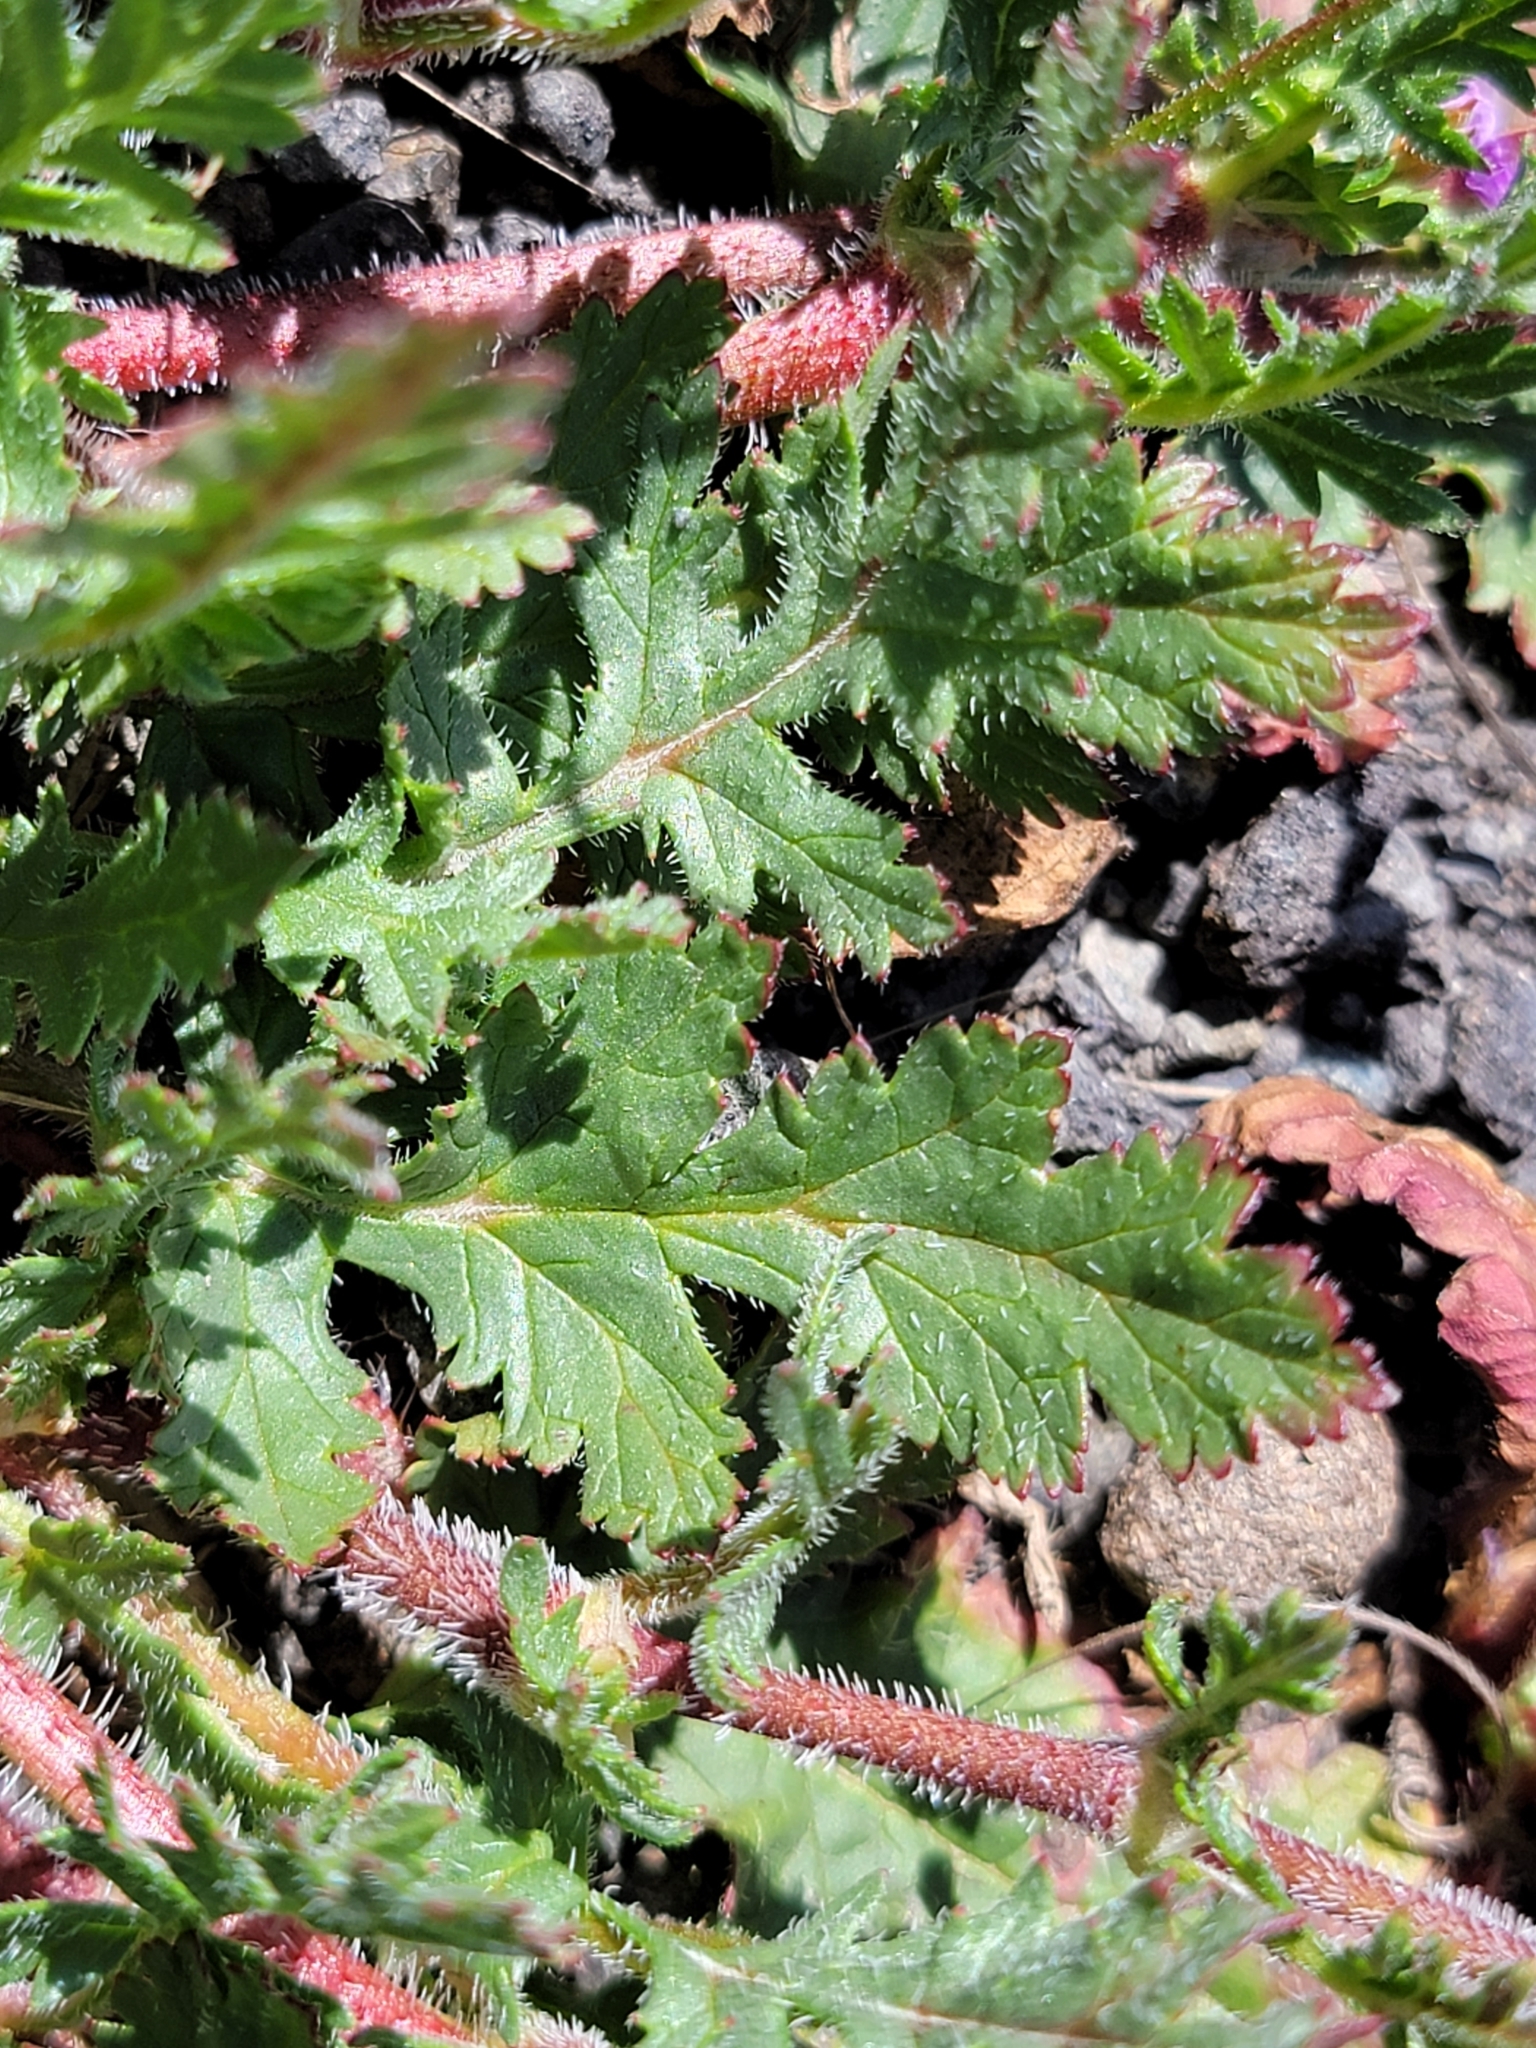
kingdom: Plantae
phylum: Tracheophyta
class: Magnoliopsida
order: Geraniales
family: Geraniaceae
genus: Erodium
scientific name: Erodium botrys
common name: Mediterranean stork's-bill
